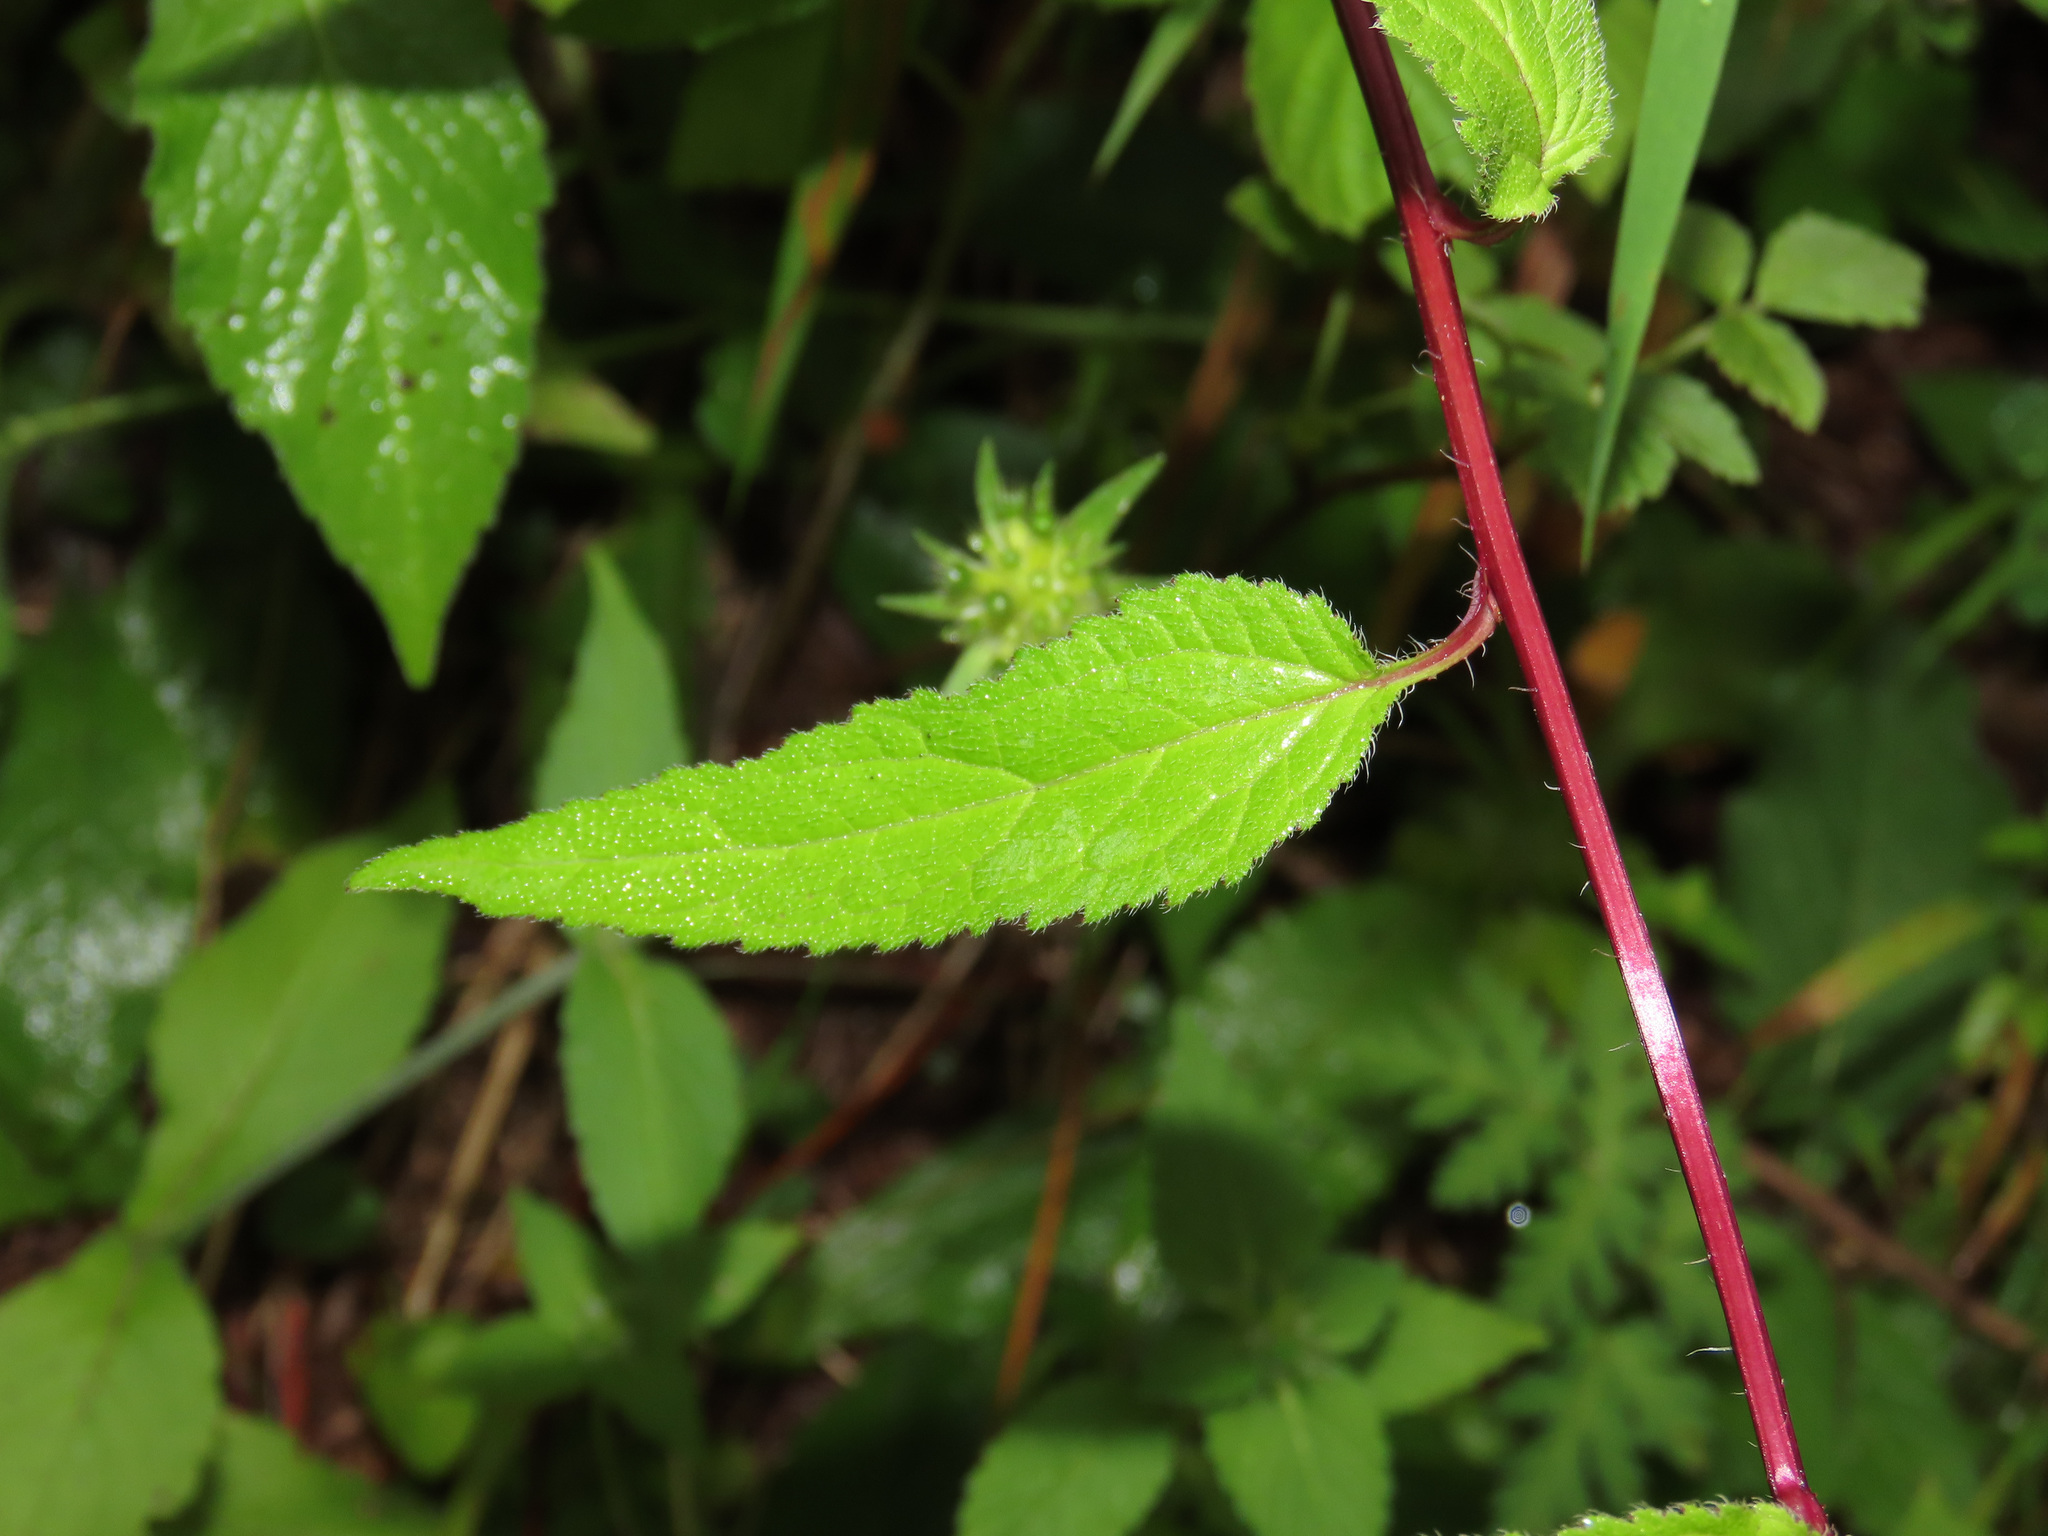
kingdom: Plantae
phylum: Tracheophyta
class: Magnoliopsida
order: Asterales
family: Campanulaceae
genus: Campanula
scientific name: Campanula trachelium
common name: Nettle-leaved bellflower
